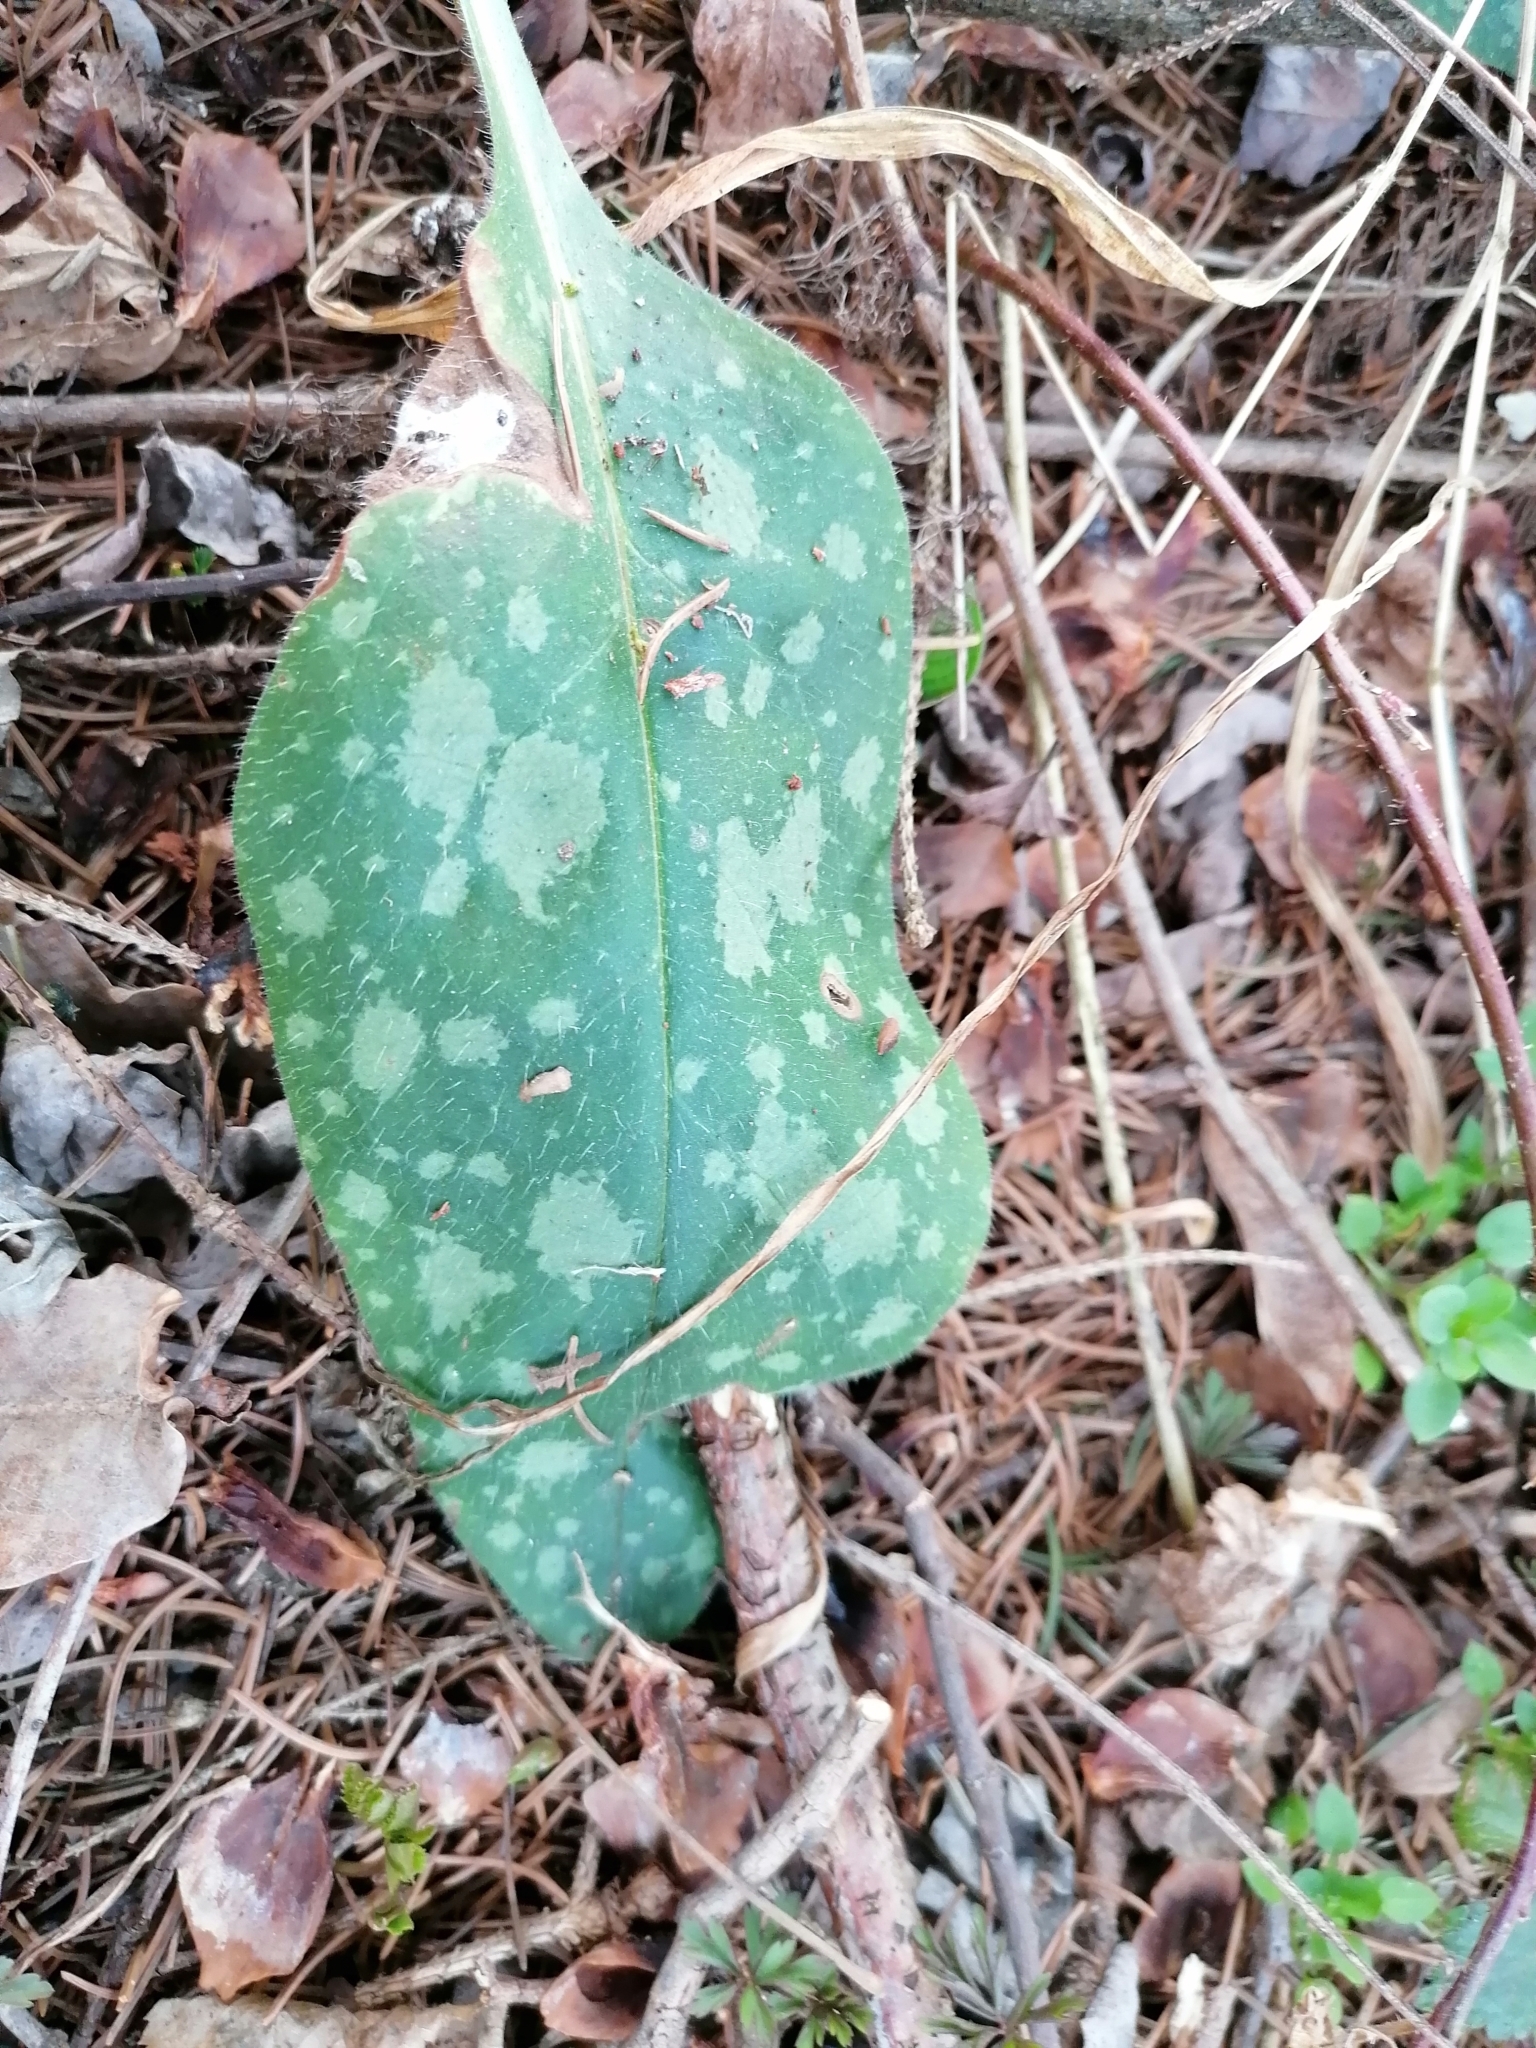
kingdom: Plantae
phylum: Tracheophyta
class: Magnoliopsida
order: Boraginales
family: Boraginaceae
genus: Pulmonaria
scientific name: Pulmonaria officinalis
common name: Lungwort
